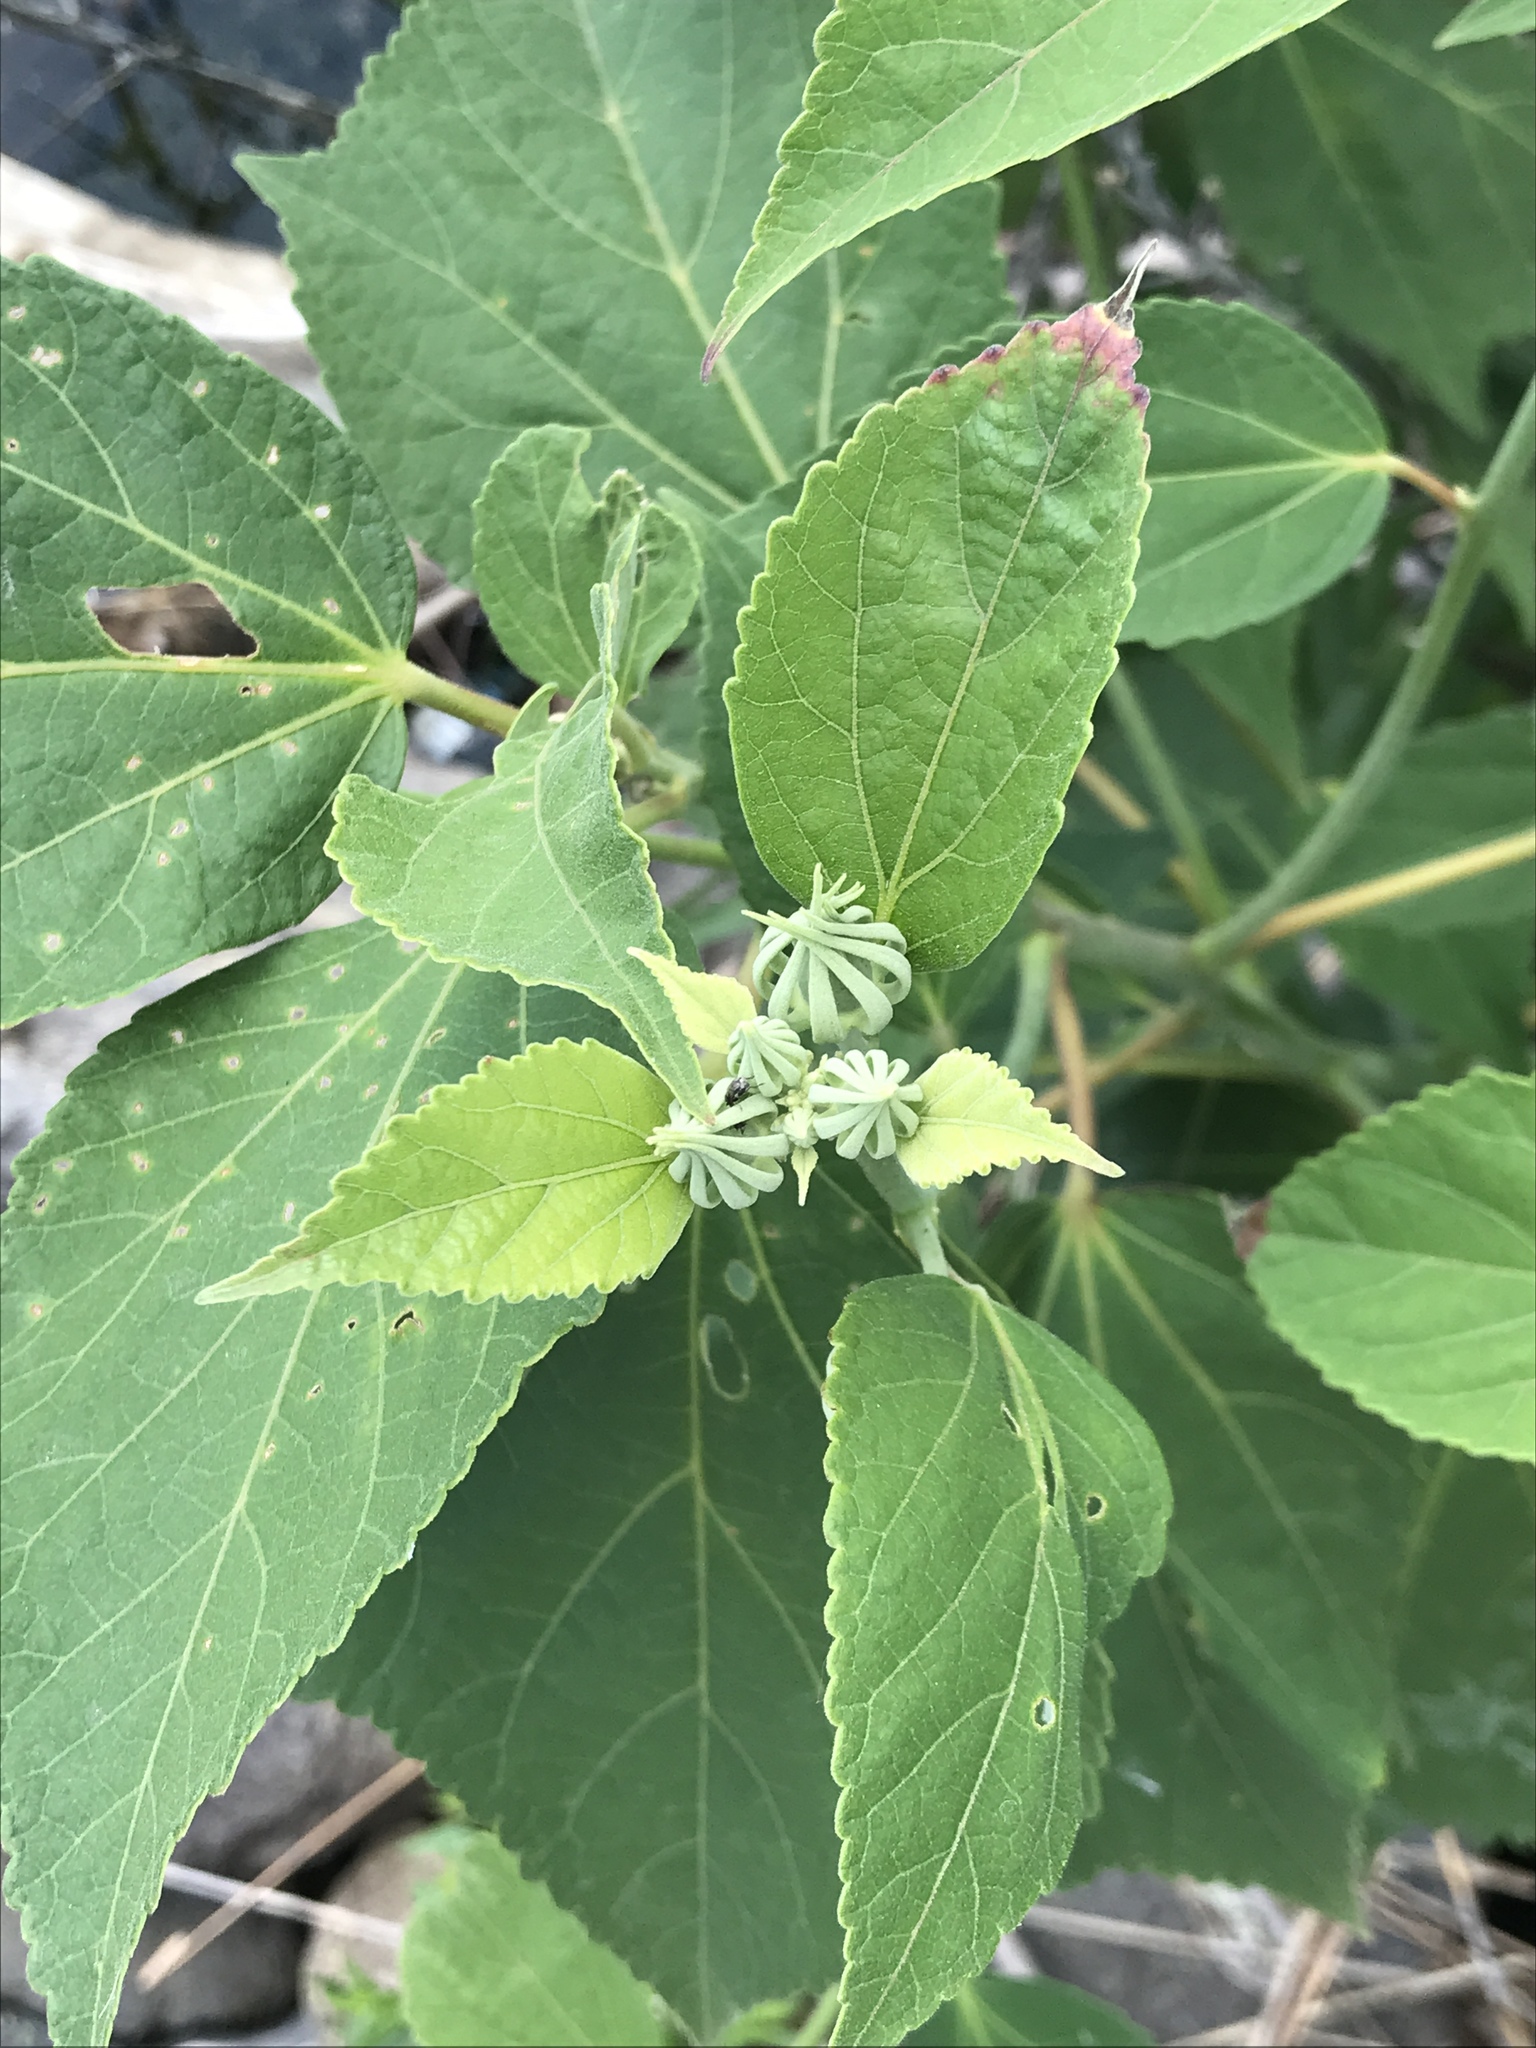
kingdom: Plantae
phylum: Tracheophyta
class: Magnoliopsida
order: Malvales
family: Malvaceae
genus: Hibiscus
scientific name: Hibiscus moscheutos
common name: Common rose-mallow
